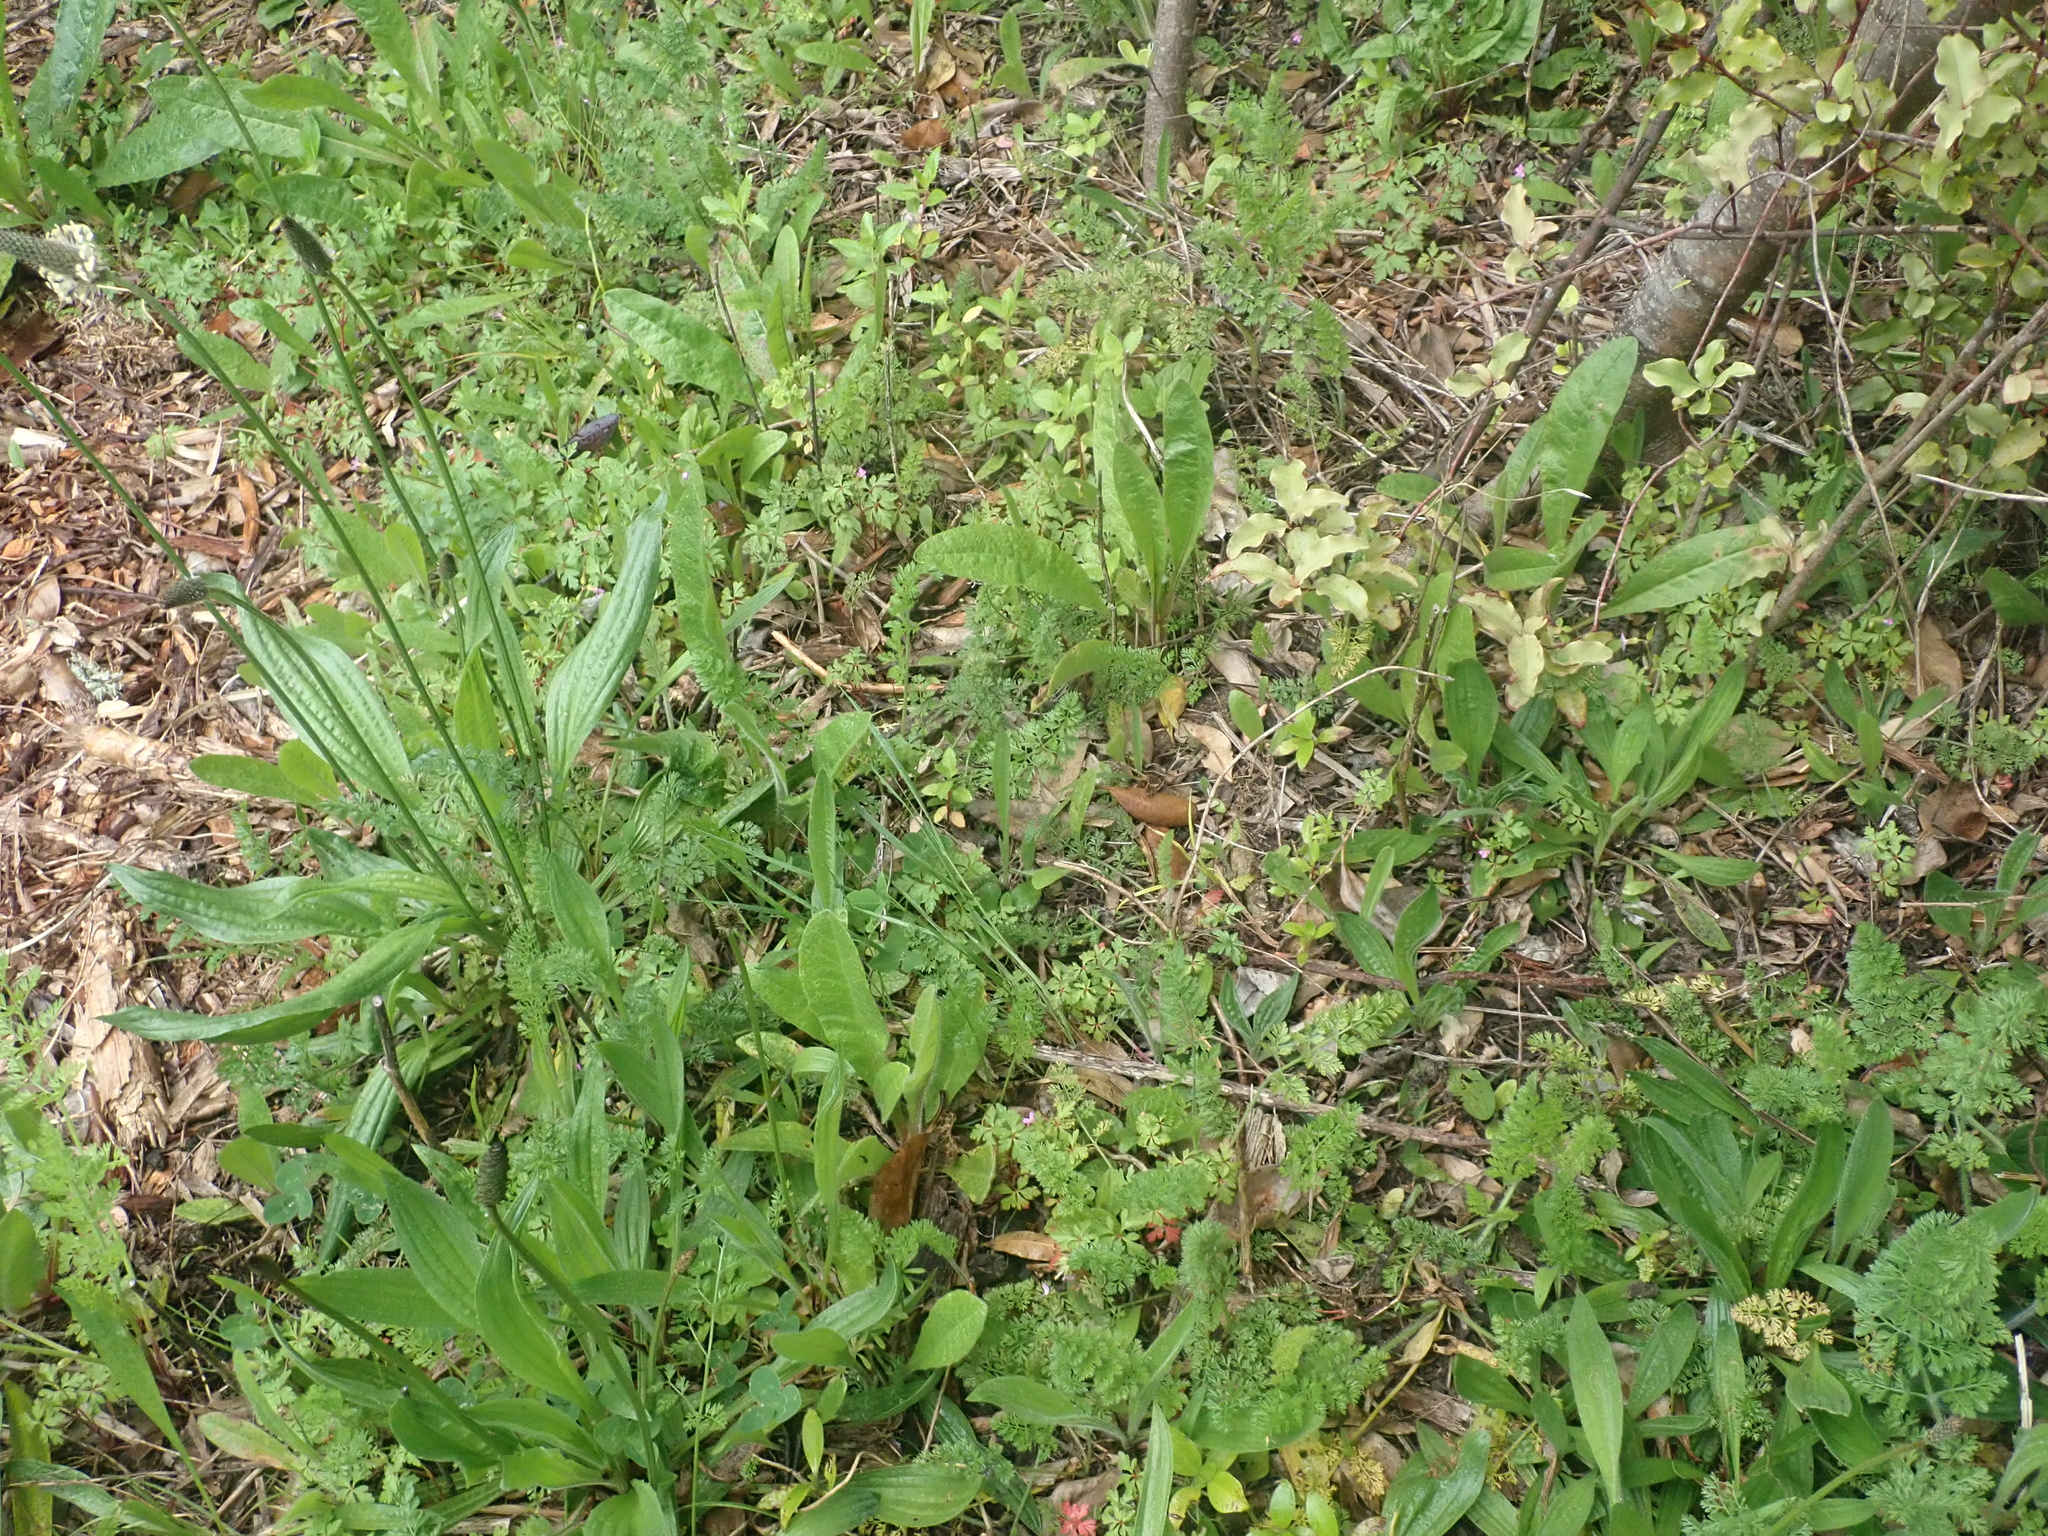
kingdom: Plantae
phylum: Tracheophyta
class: Magnoliopsida
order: Lamiales
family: Plantaginaceae
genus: Plantago
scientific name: Plantago lanceolata
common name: Ribwort plantain
